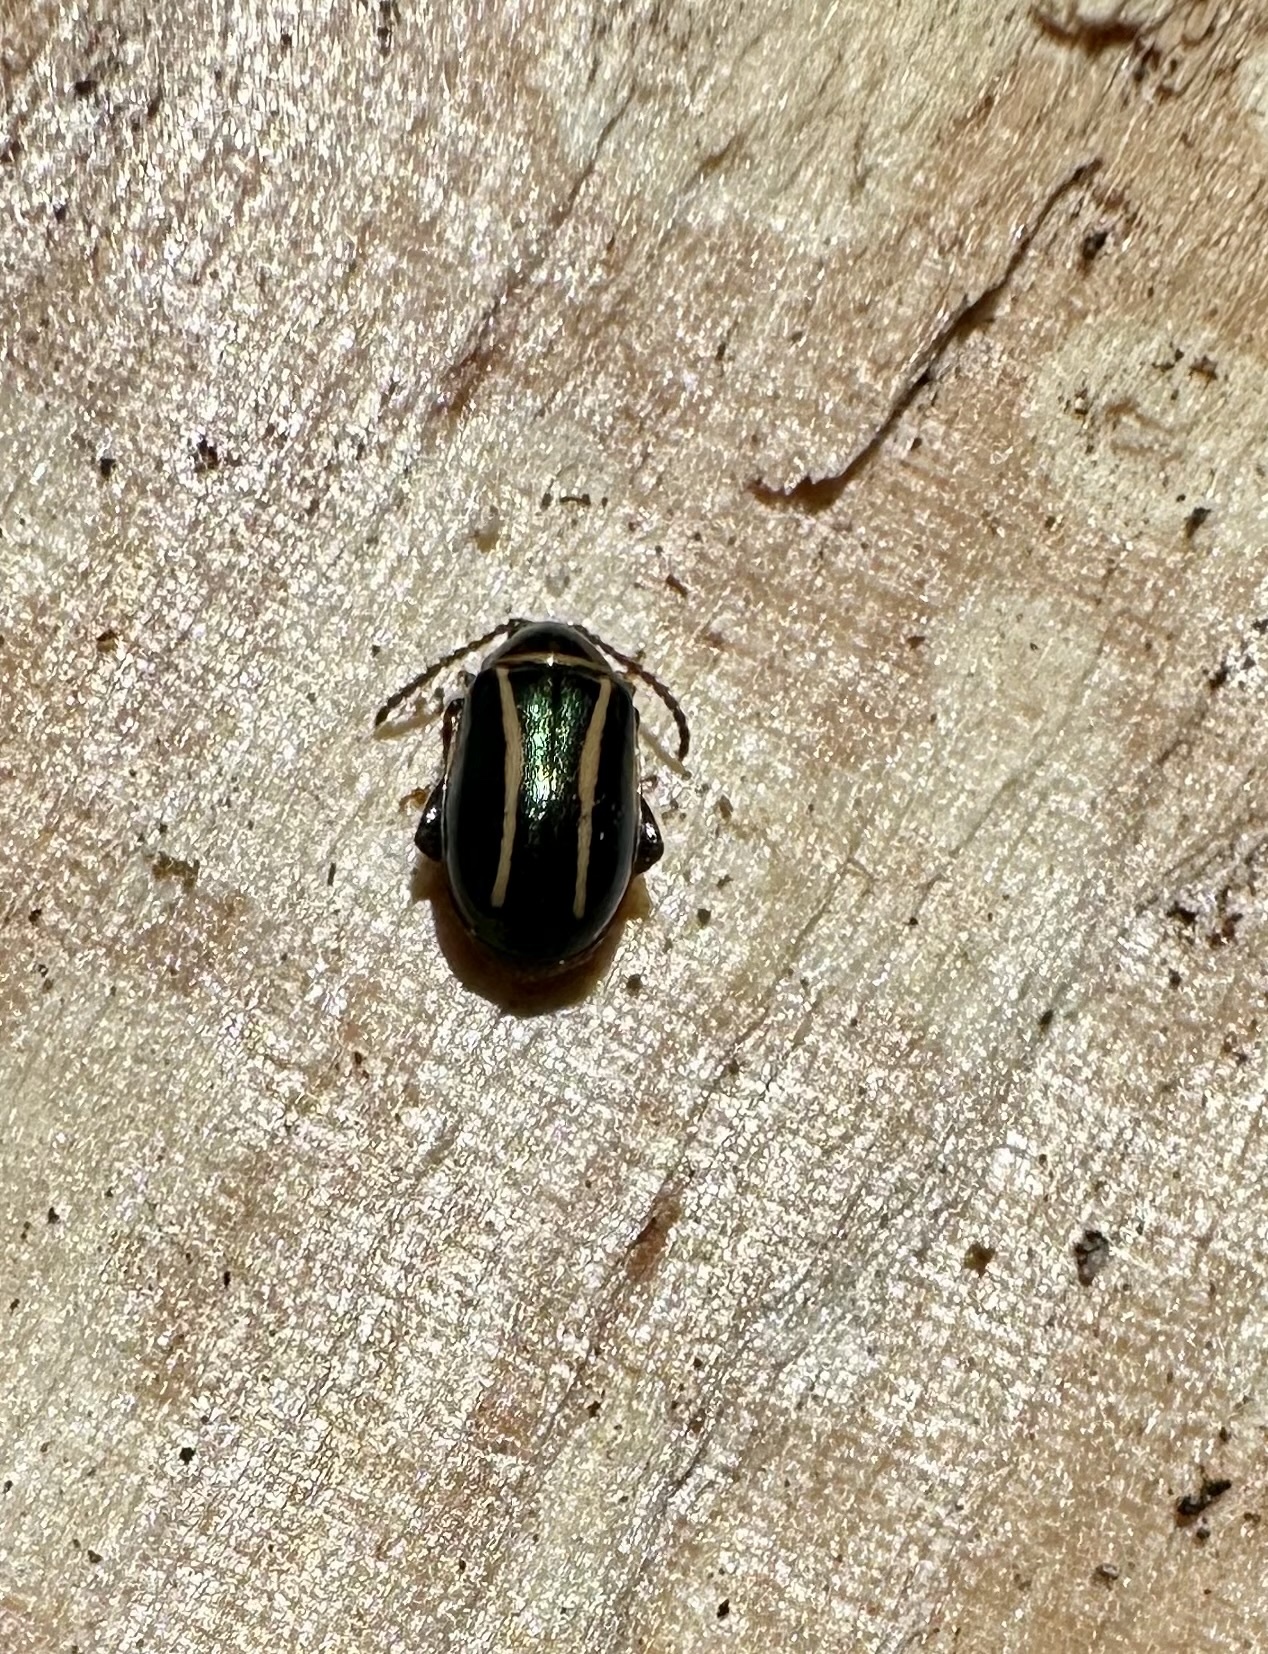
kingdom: Animalia
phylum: Arthropoda
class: Insecta
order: Coleoptera
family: Chrysomelidae
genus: Kuschelina
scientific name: Kuschelina
